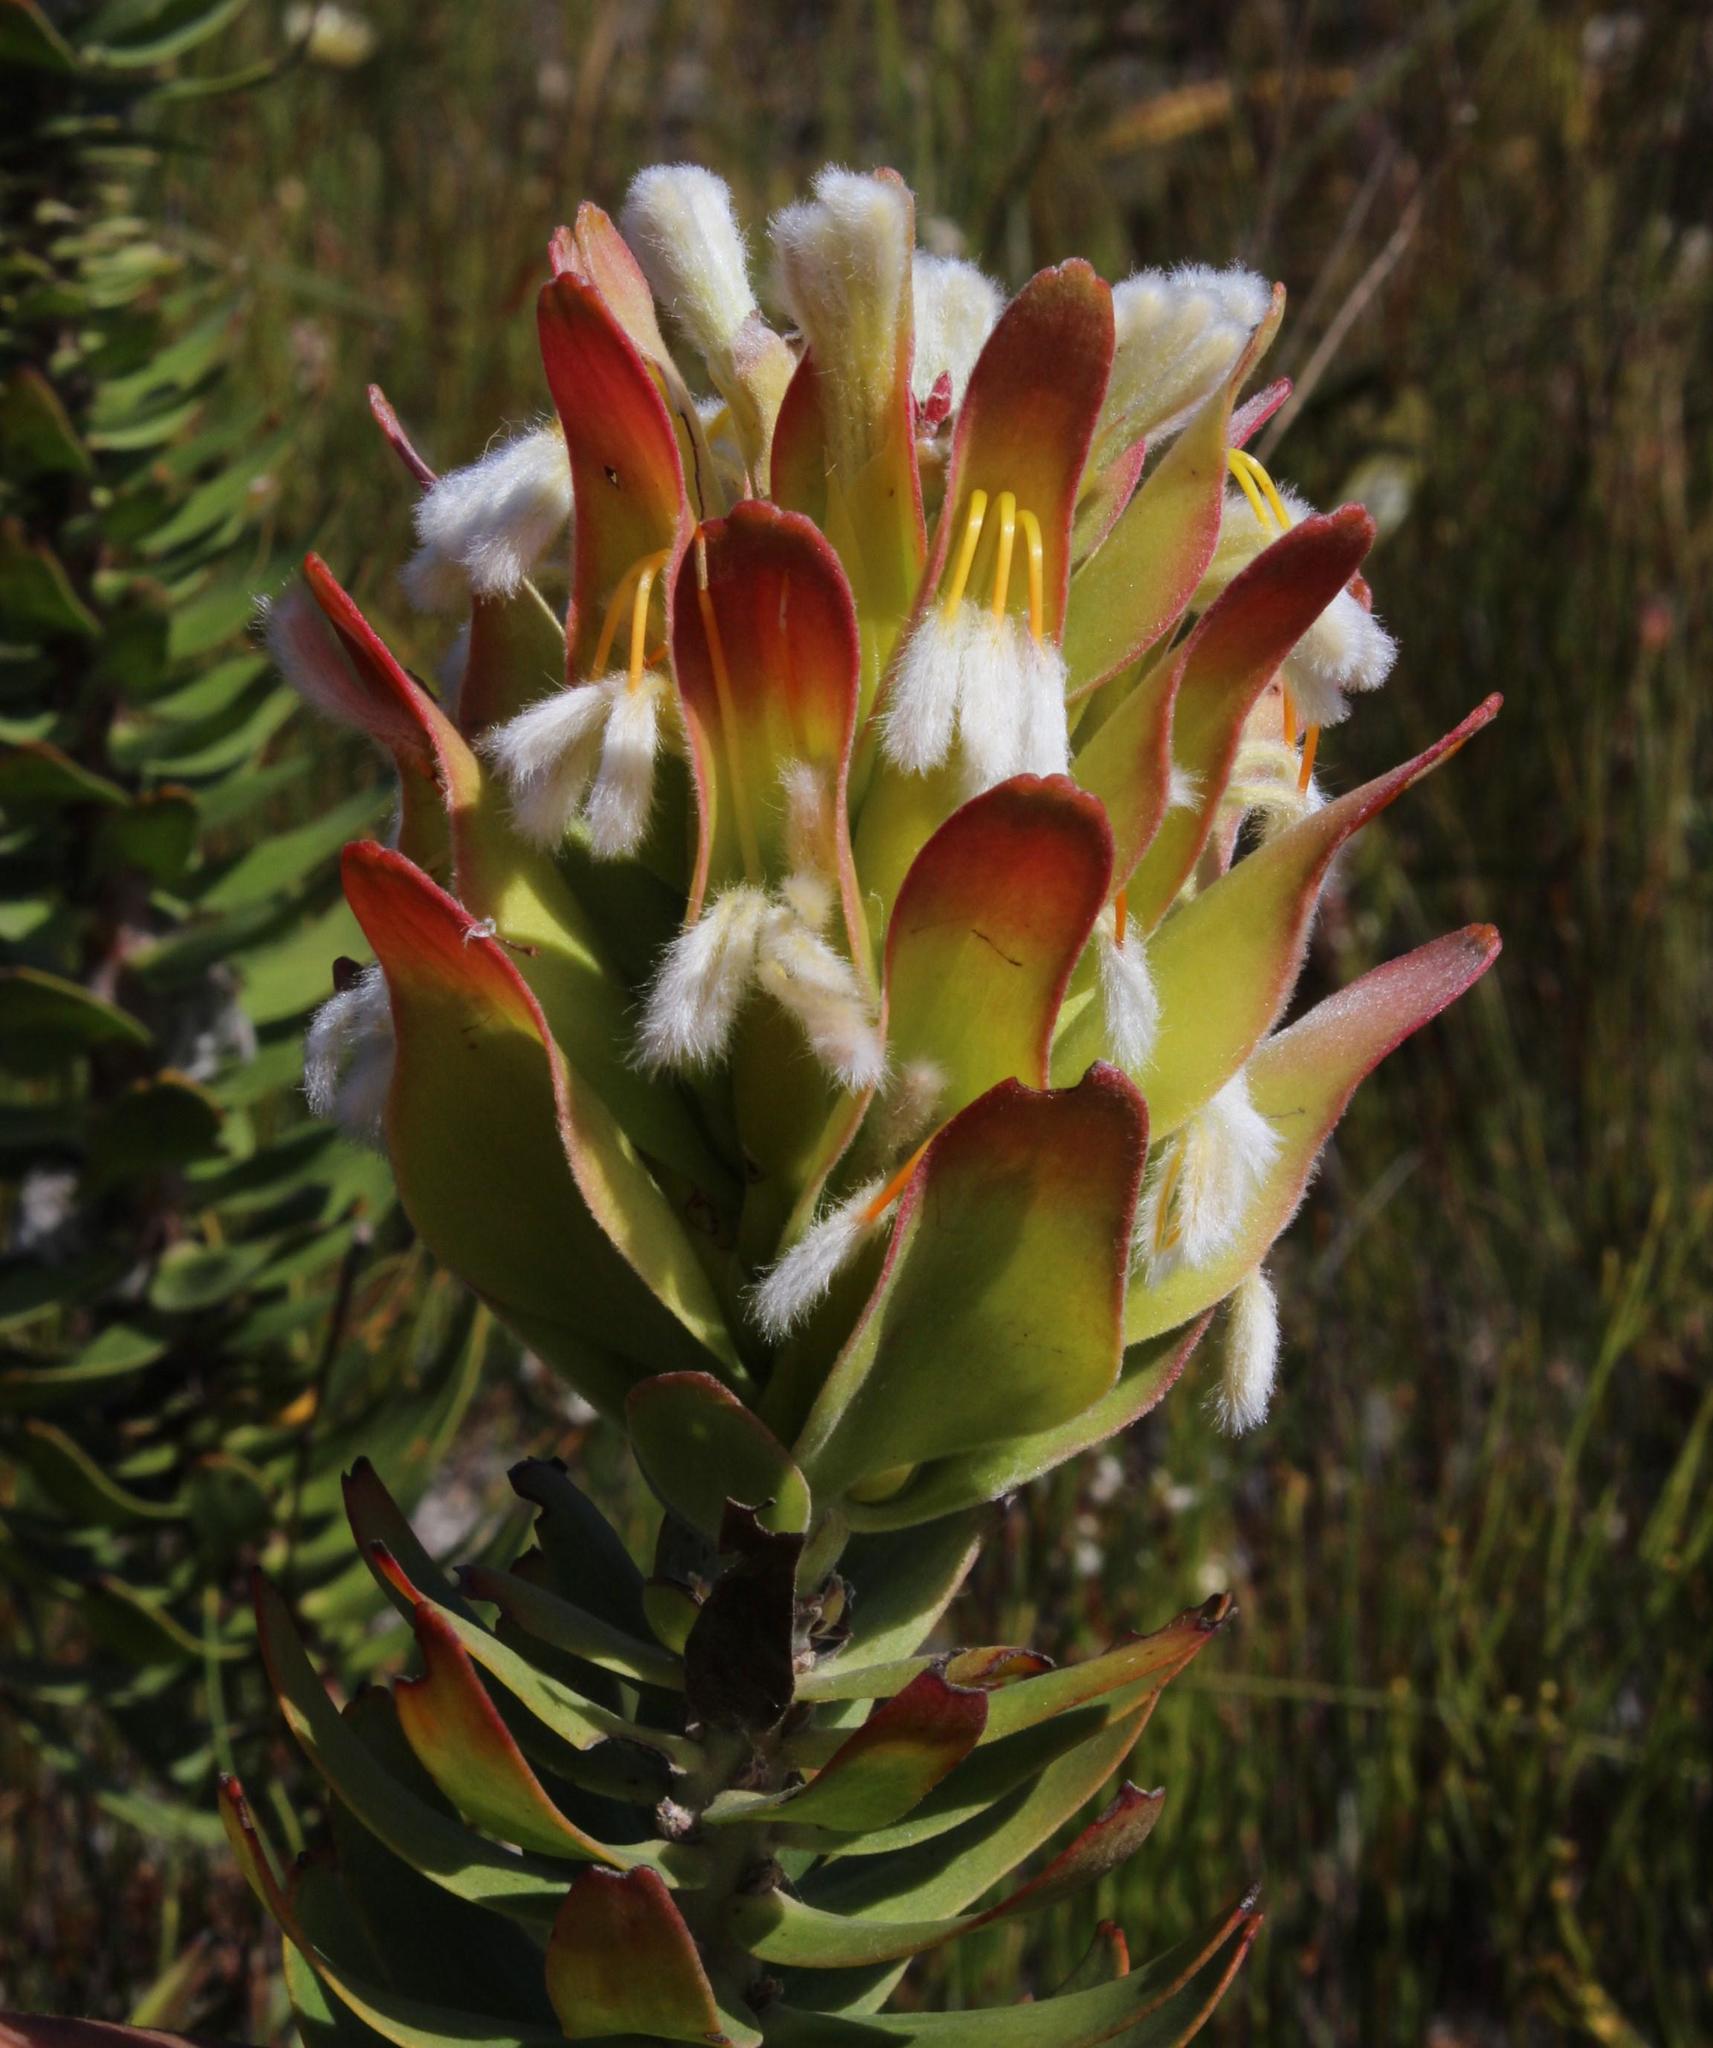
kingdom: Plantae
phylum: Tracheophyta
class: Magnoliopsida
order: Proteales
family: Proteaceae
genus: Mimetes
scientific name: Mimetes cucullatus
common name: Common pagoda
